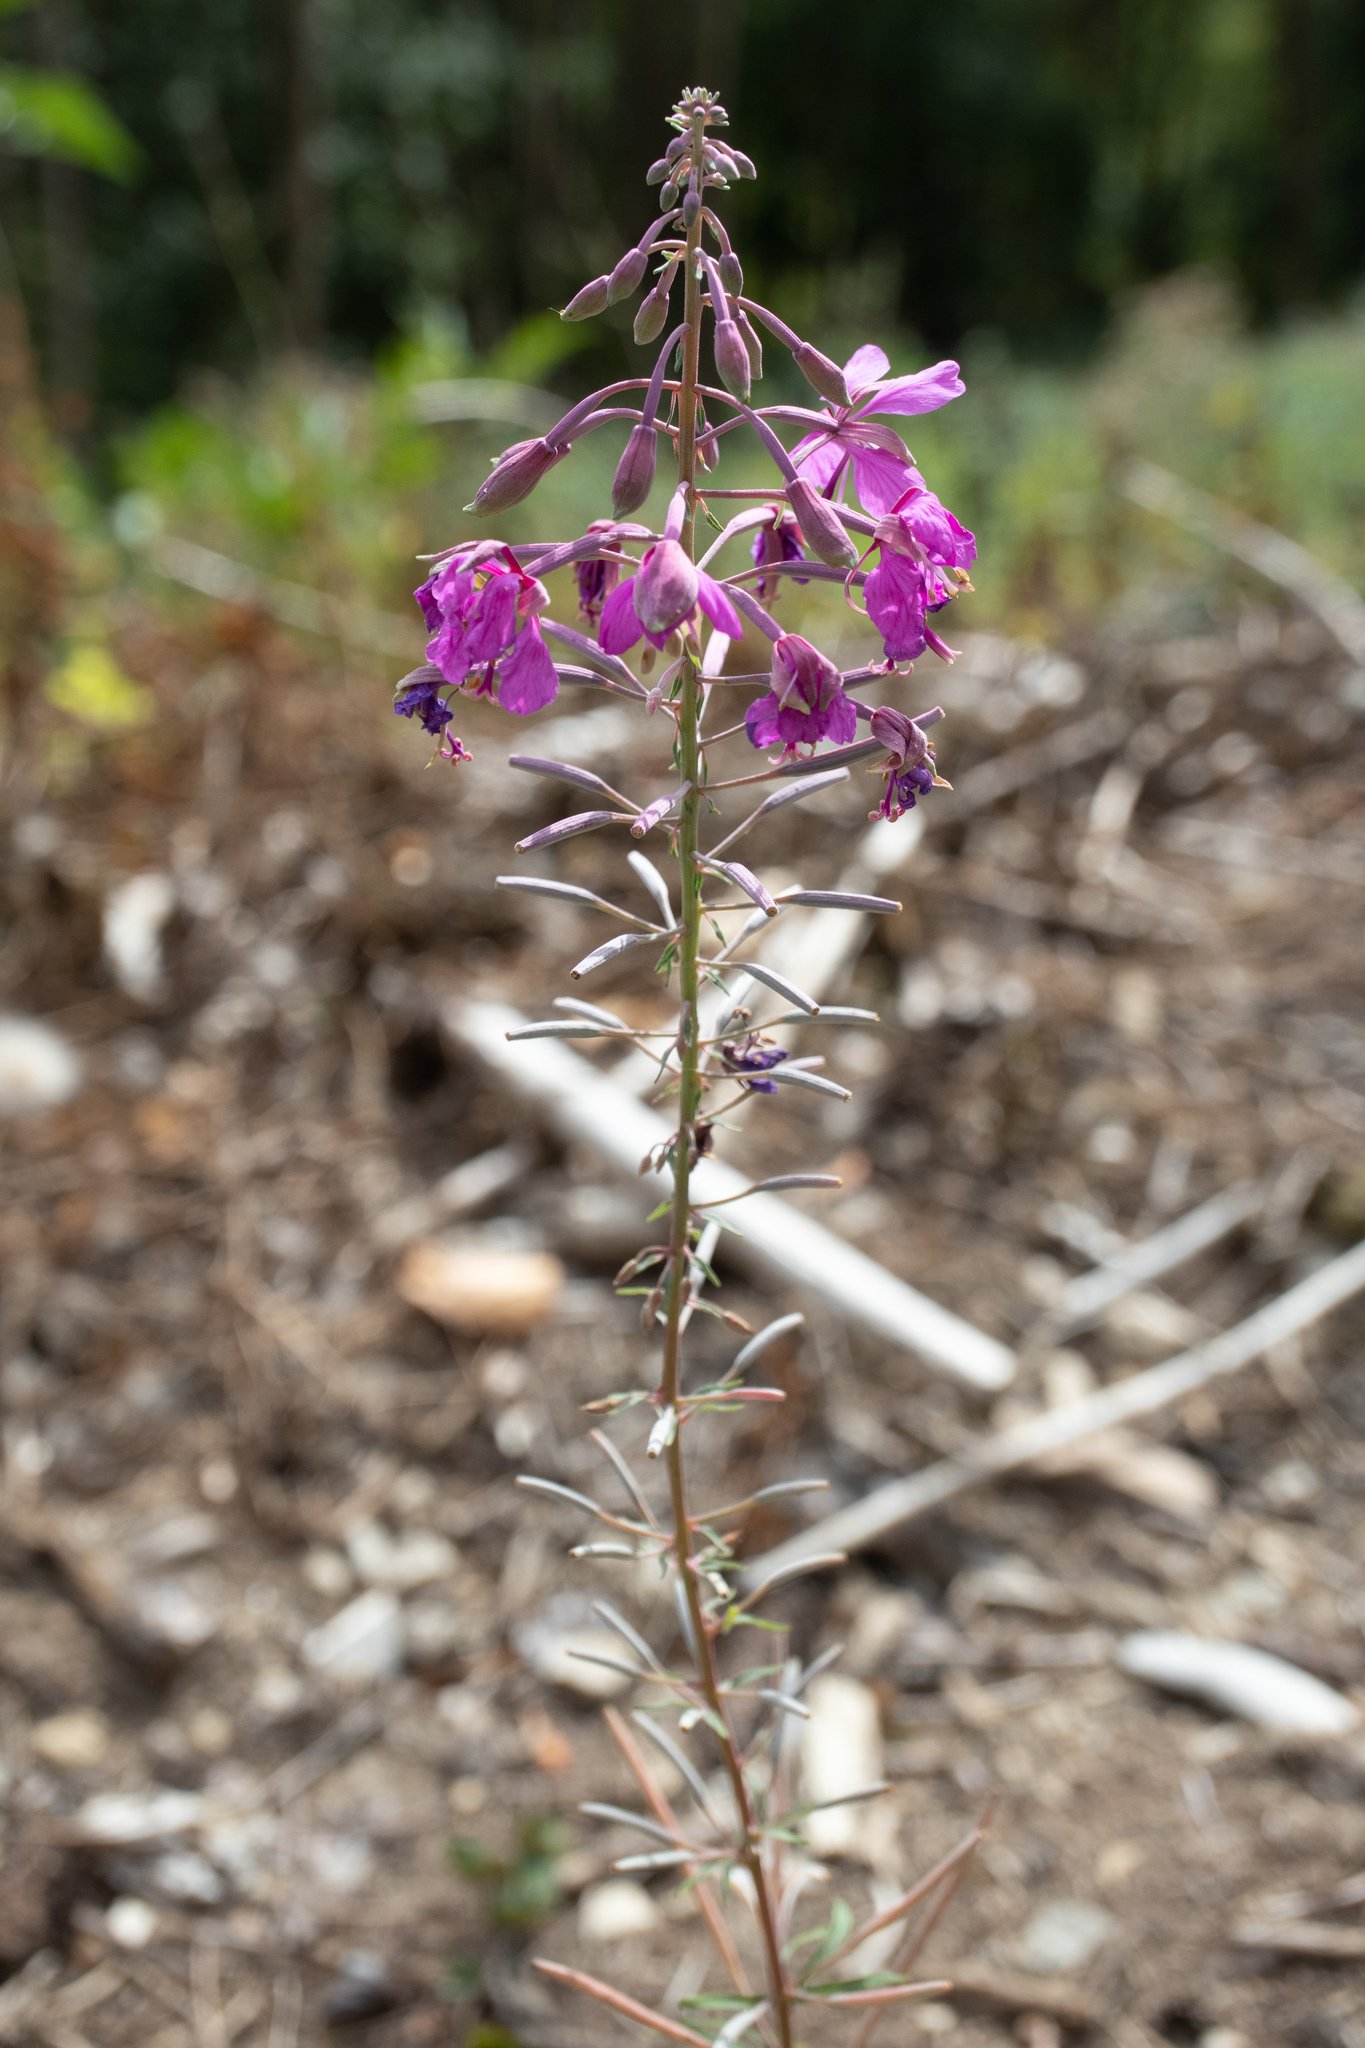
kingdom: Plantae
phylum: Tracheophyta
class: Magnoliopsida
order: Myrtales
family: Onagraceae
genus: Chamaenerion
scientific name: Chamaenerion angustifolium
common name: Fireweed
